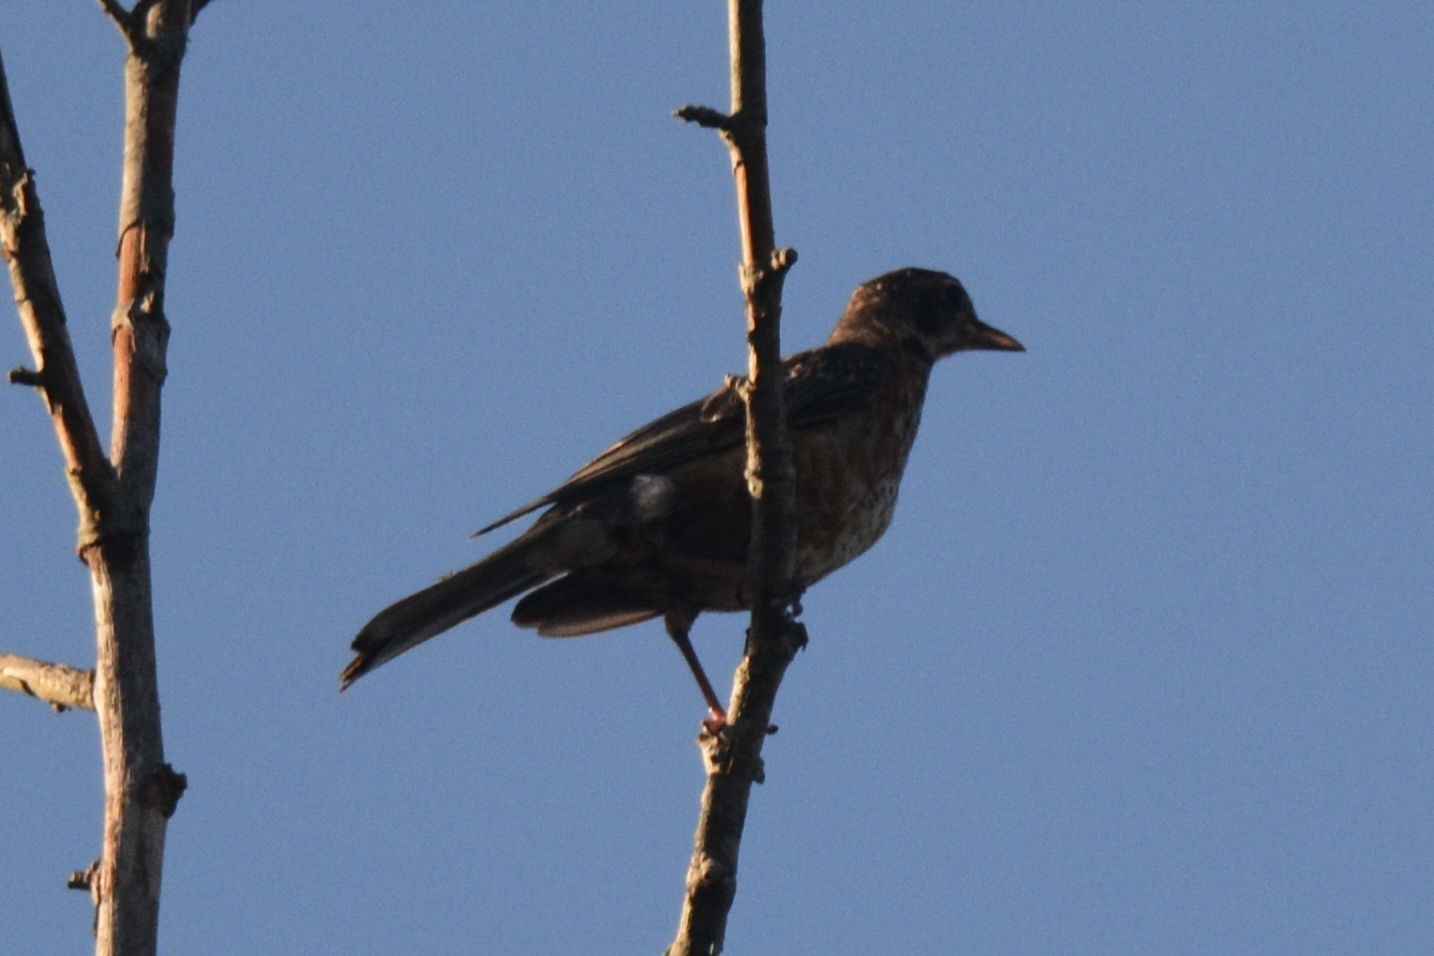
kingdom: Animalia
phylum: Chordata
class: Aves
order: Passeriformes
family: Turdidae
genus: Turdus
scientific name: Turdus migratorius
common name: American robin
